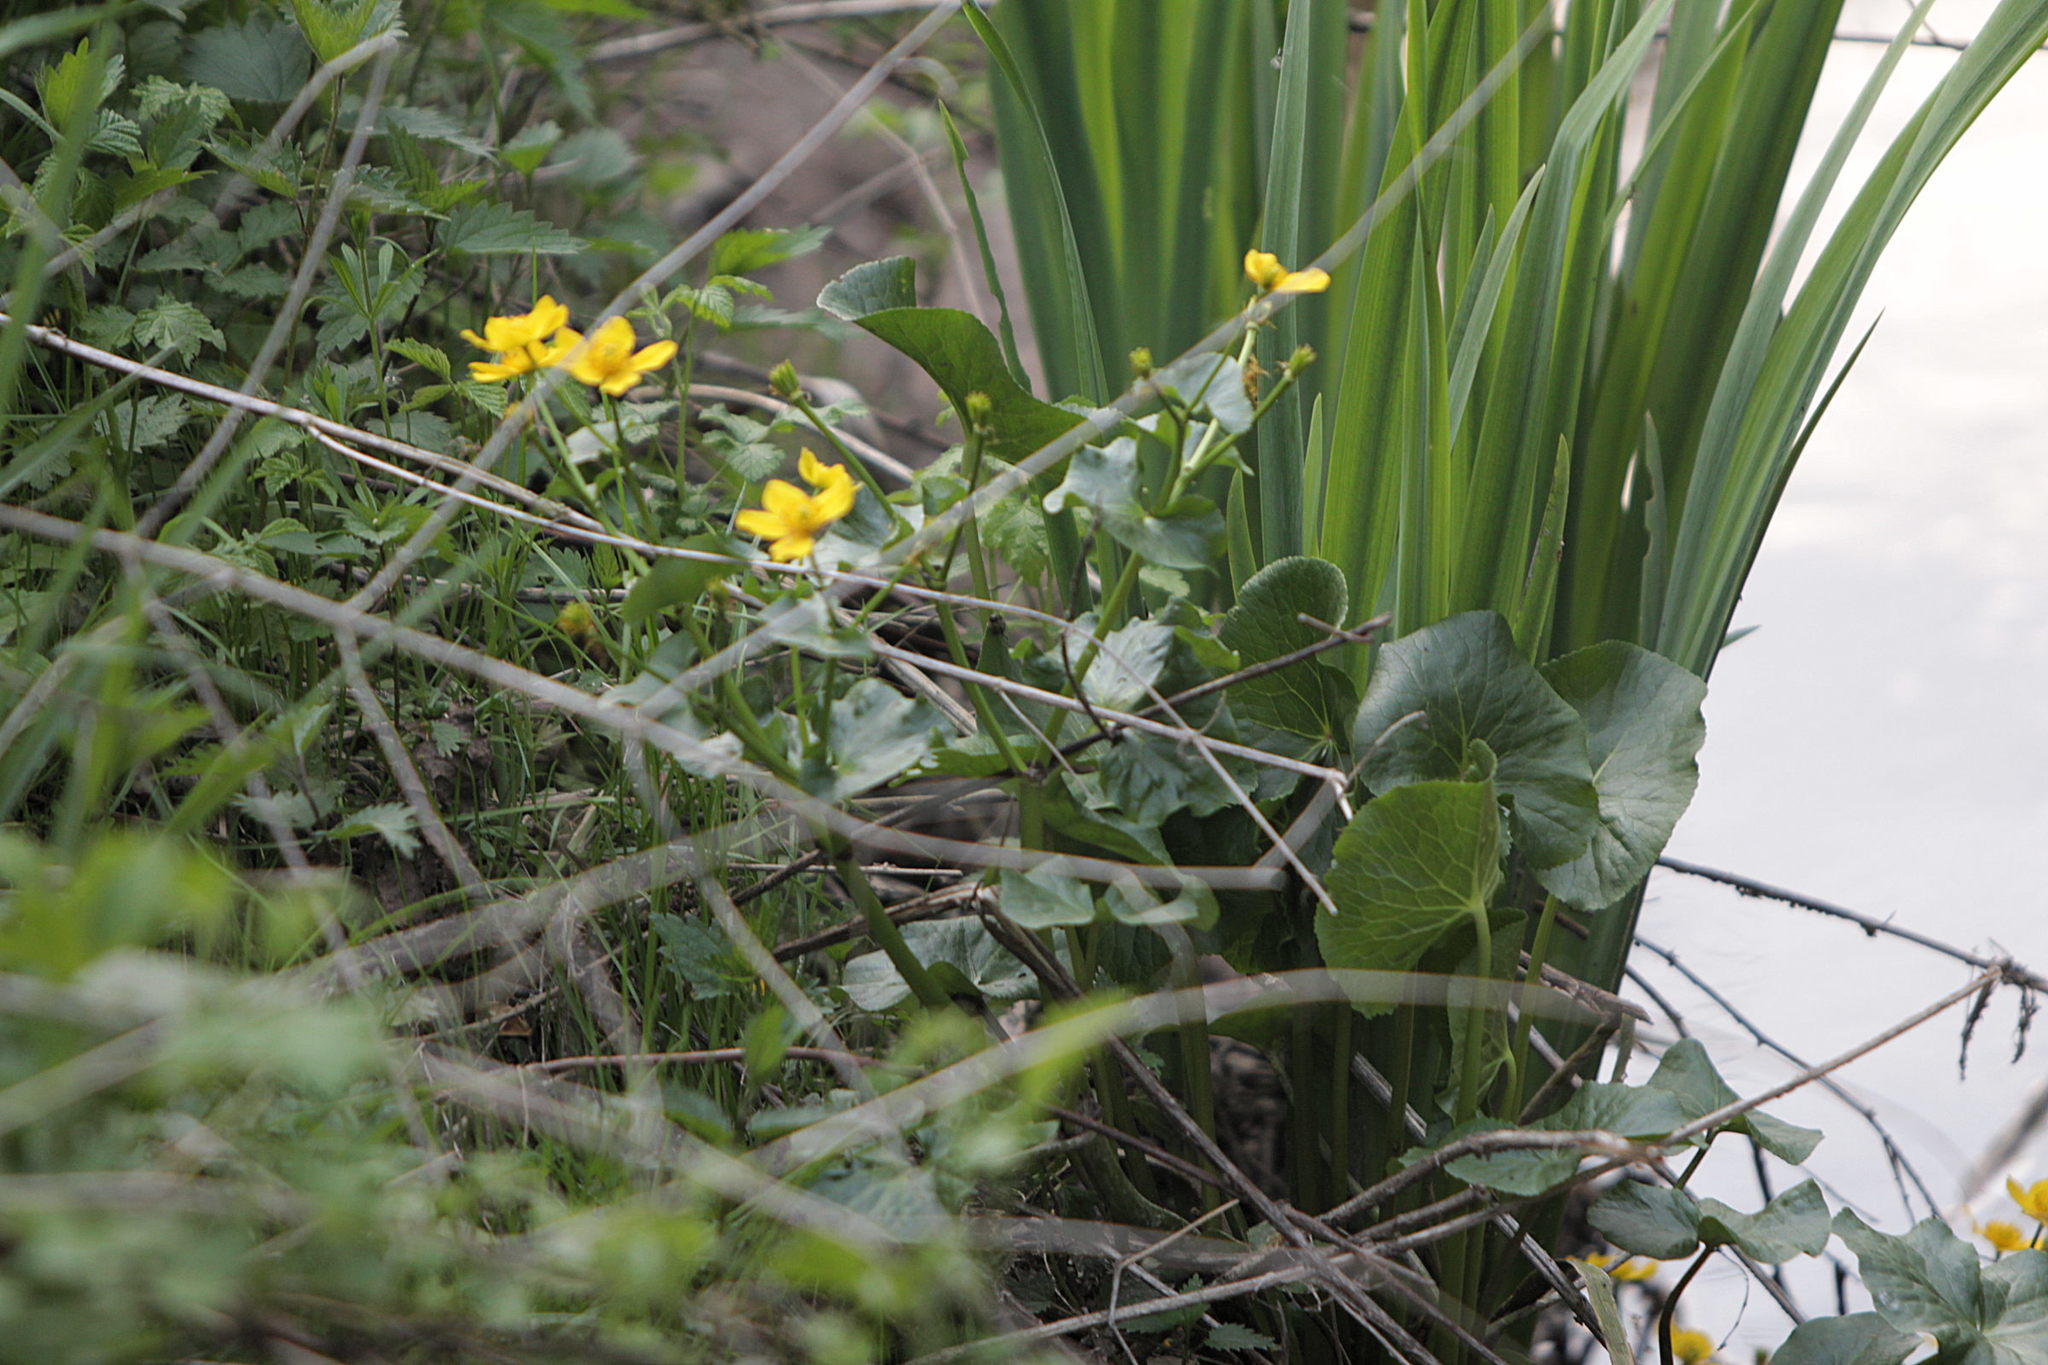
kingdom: Plantae
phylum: Tracheophyta
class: Magnoliopsida
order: Ranunculales
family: Ranunculaceae
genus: Caltha
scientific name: Caltha palustris
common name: Marsh marigold
